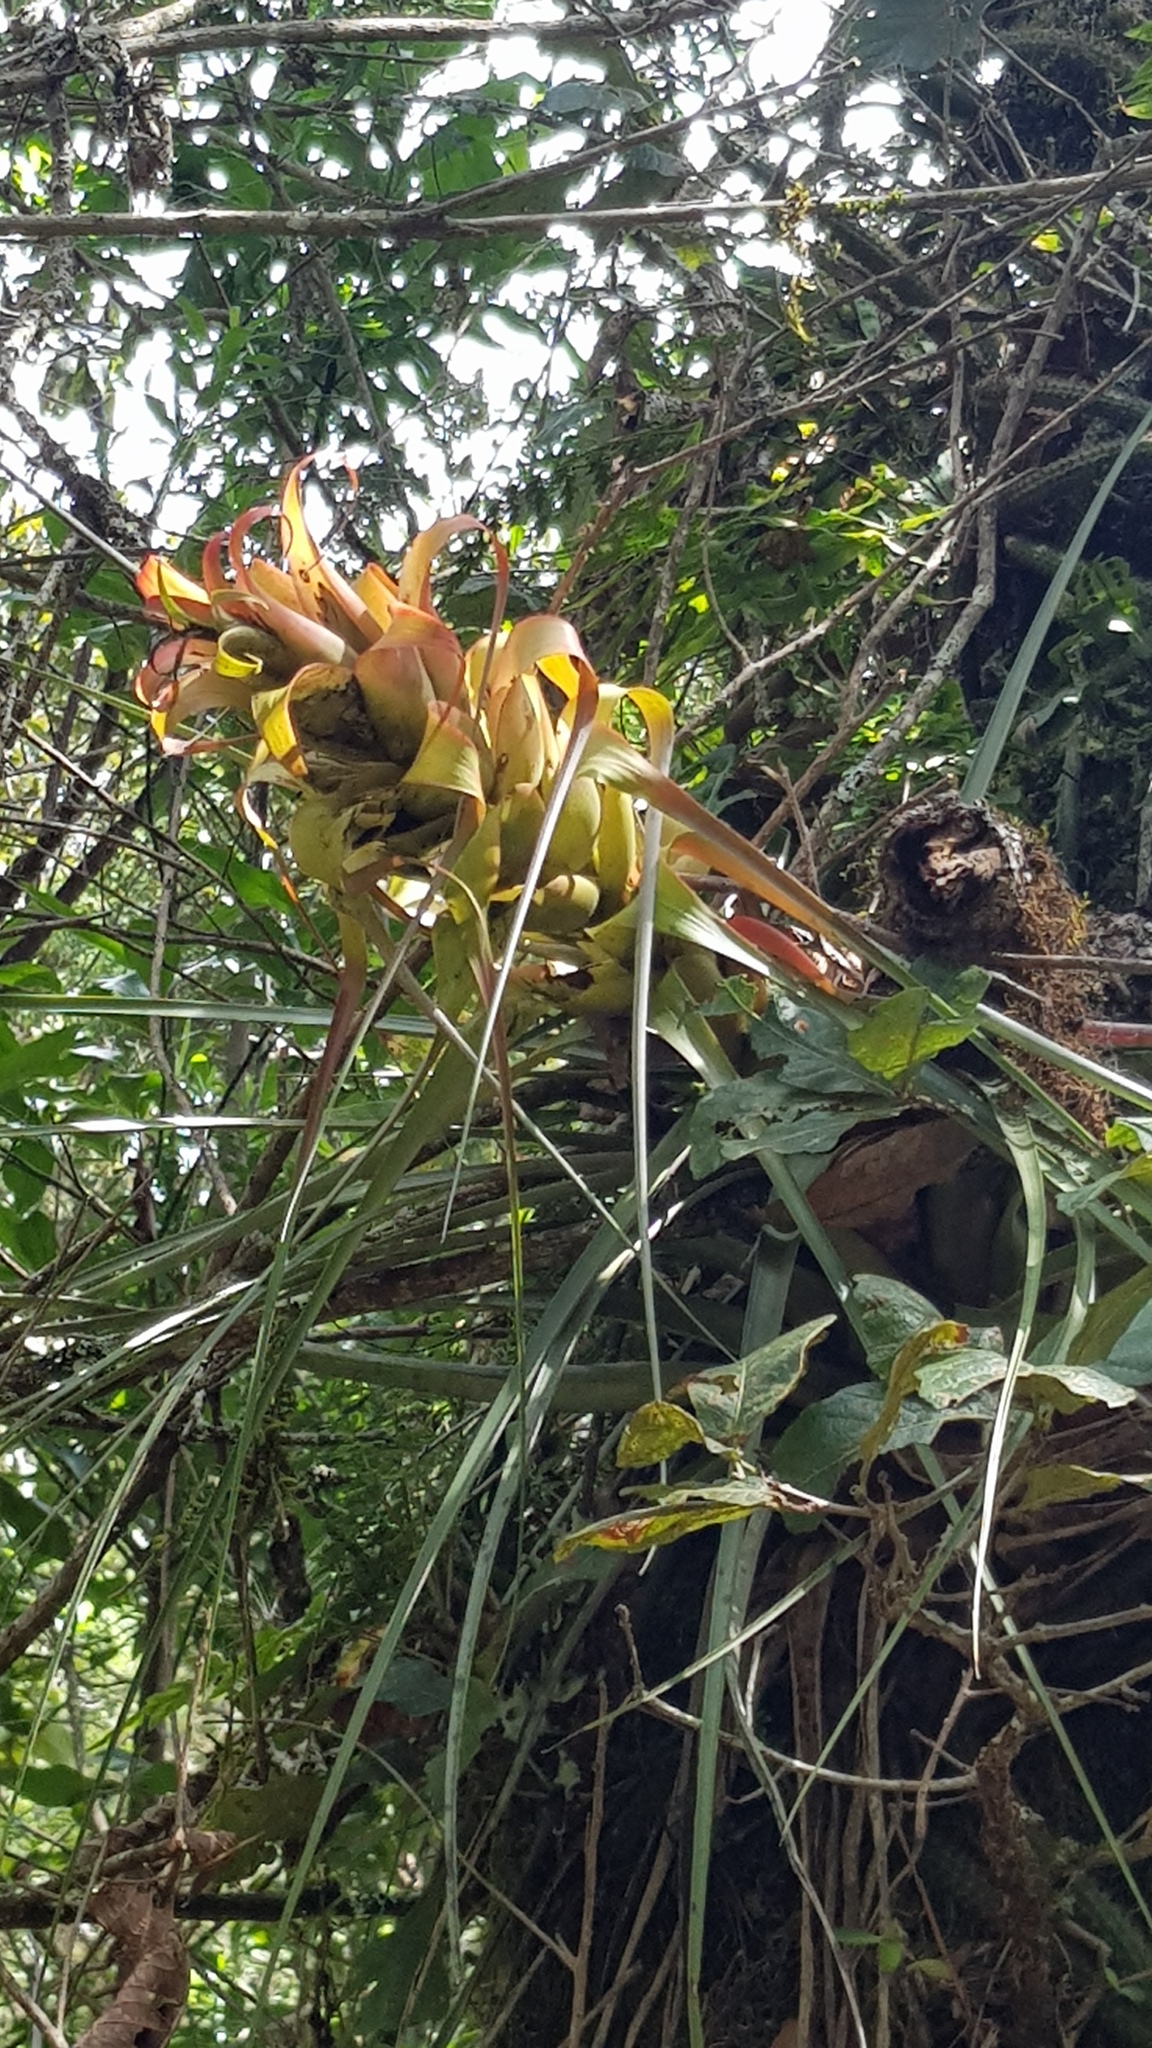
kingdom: Plantae
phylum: Tracheophyta
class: Liliopsida
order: Poales
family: Bromeliaceae
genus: Tillandsia
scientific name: Tillandsia carlos-hankii
